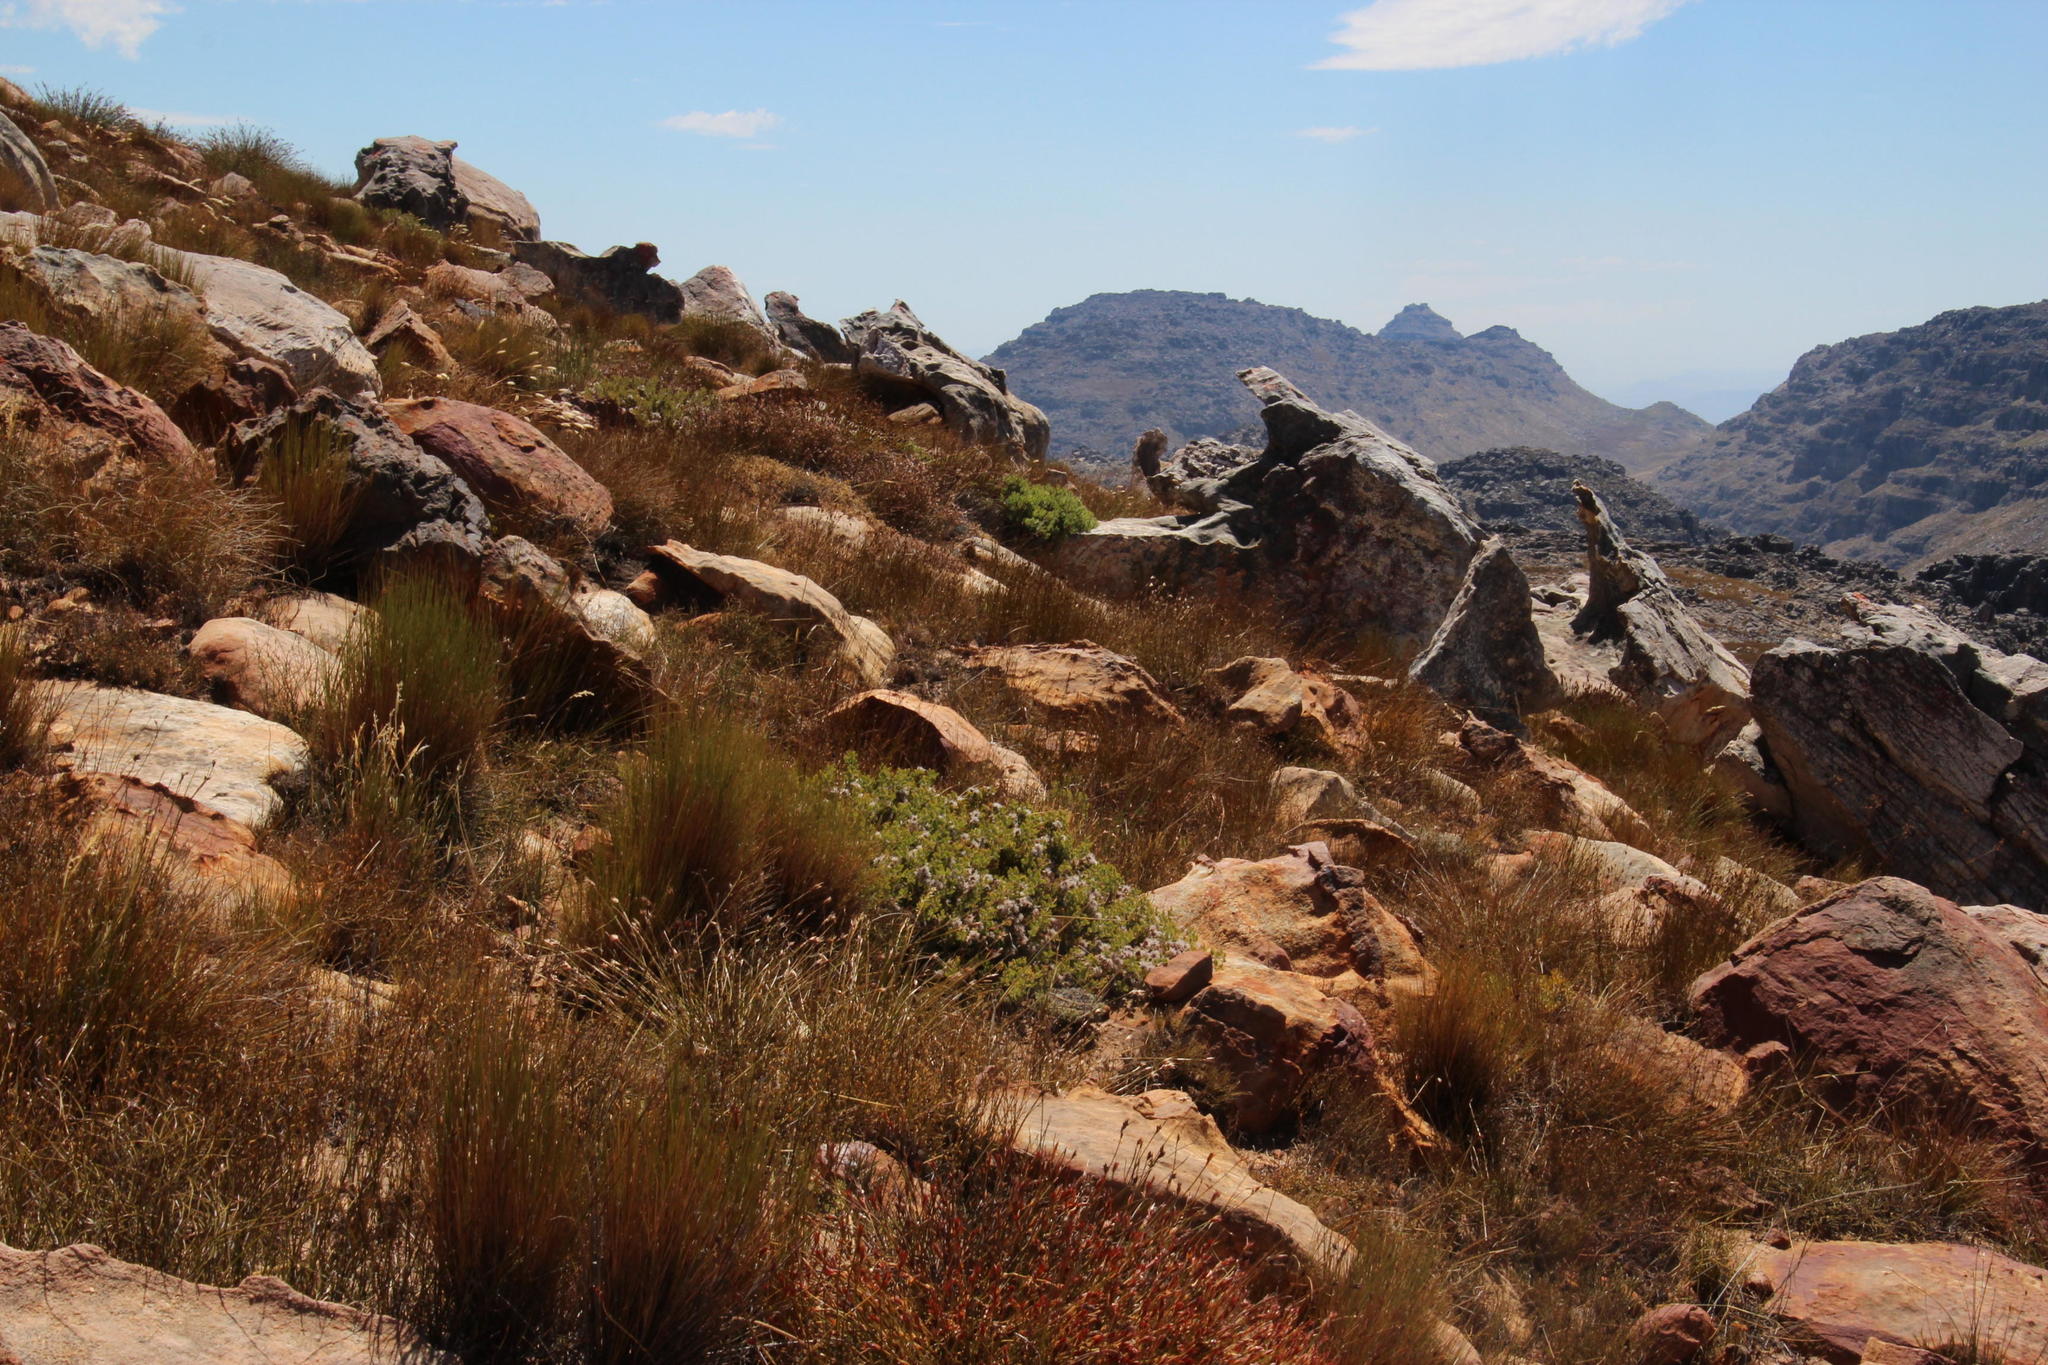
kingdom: Plantae
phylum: Tracheophyta
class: Magnoliopsida
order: Proteales
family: Proteaceae
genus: Serruria
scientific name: Serruria aitonii
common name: Marshmallow spiderhead
